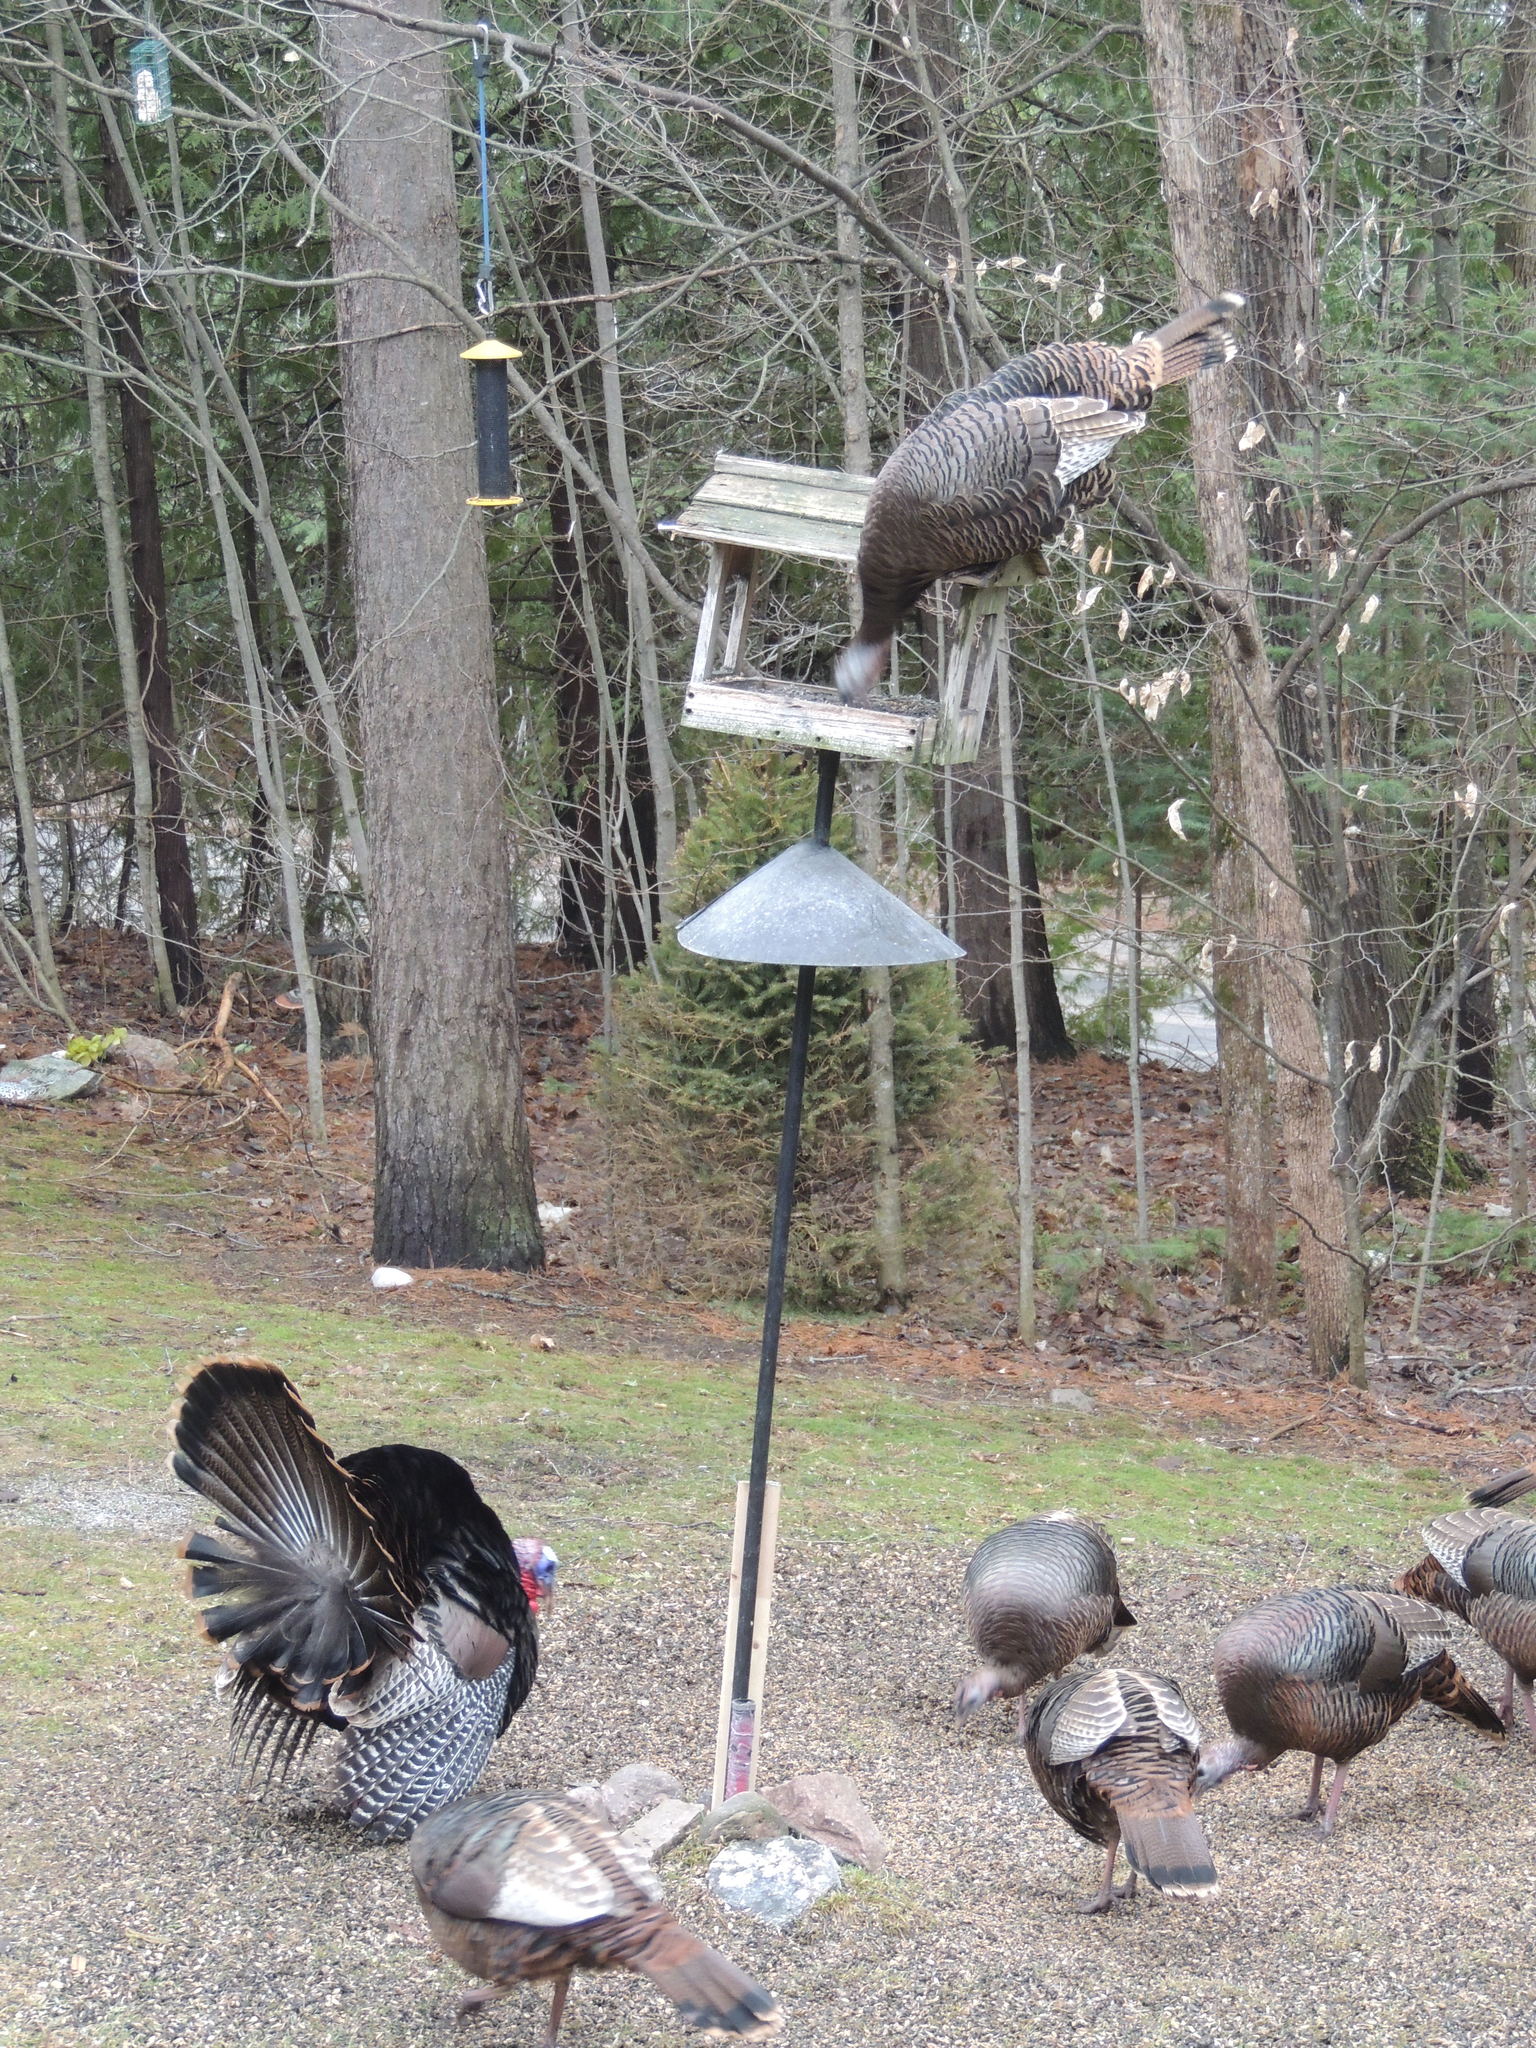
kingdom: Animalia
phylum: Chordata
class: Aves
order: Galliformes
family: Phasianidae
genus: Meleagris
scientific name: Meleagris gallopavo
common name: Wild turkey
